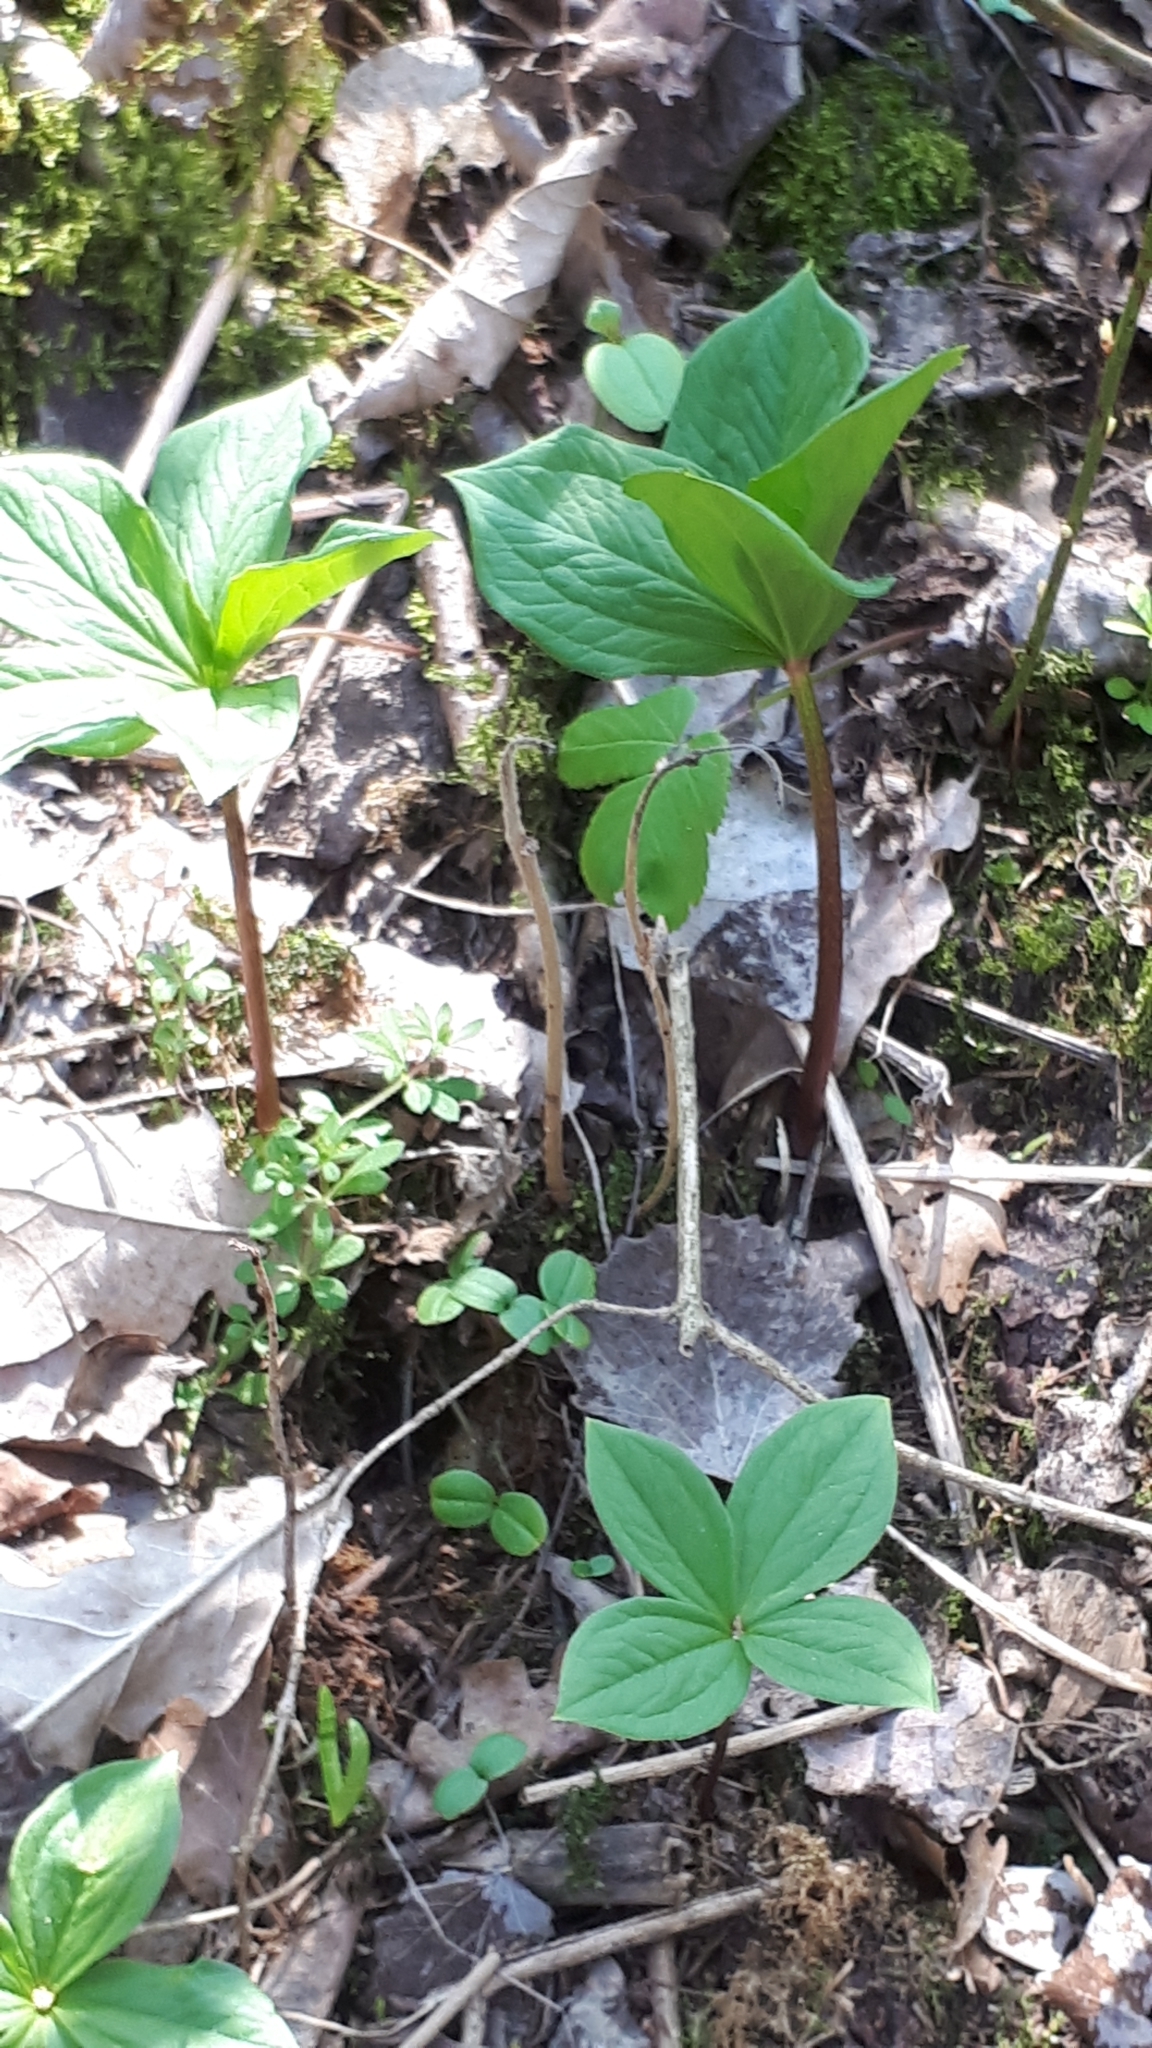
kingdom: Plantae
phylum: Tracheophyta
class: Liliopsida
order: Liliales
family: Melanthiaceae
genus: Paris
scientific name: Paris quadrifolia
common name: Herb-paris
